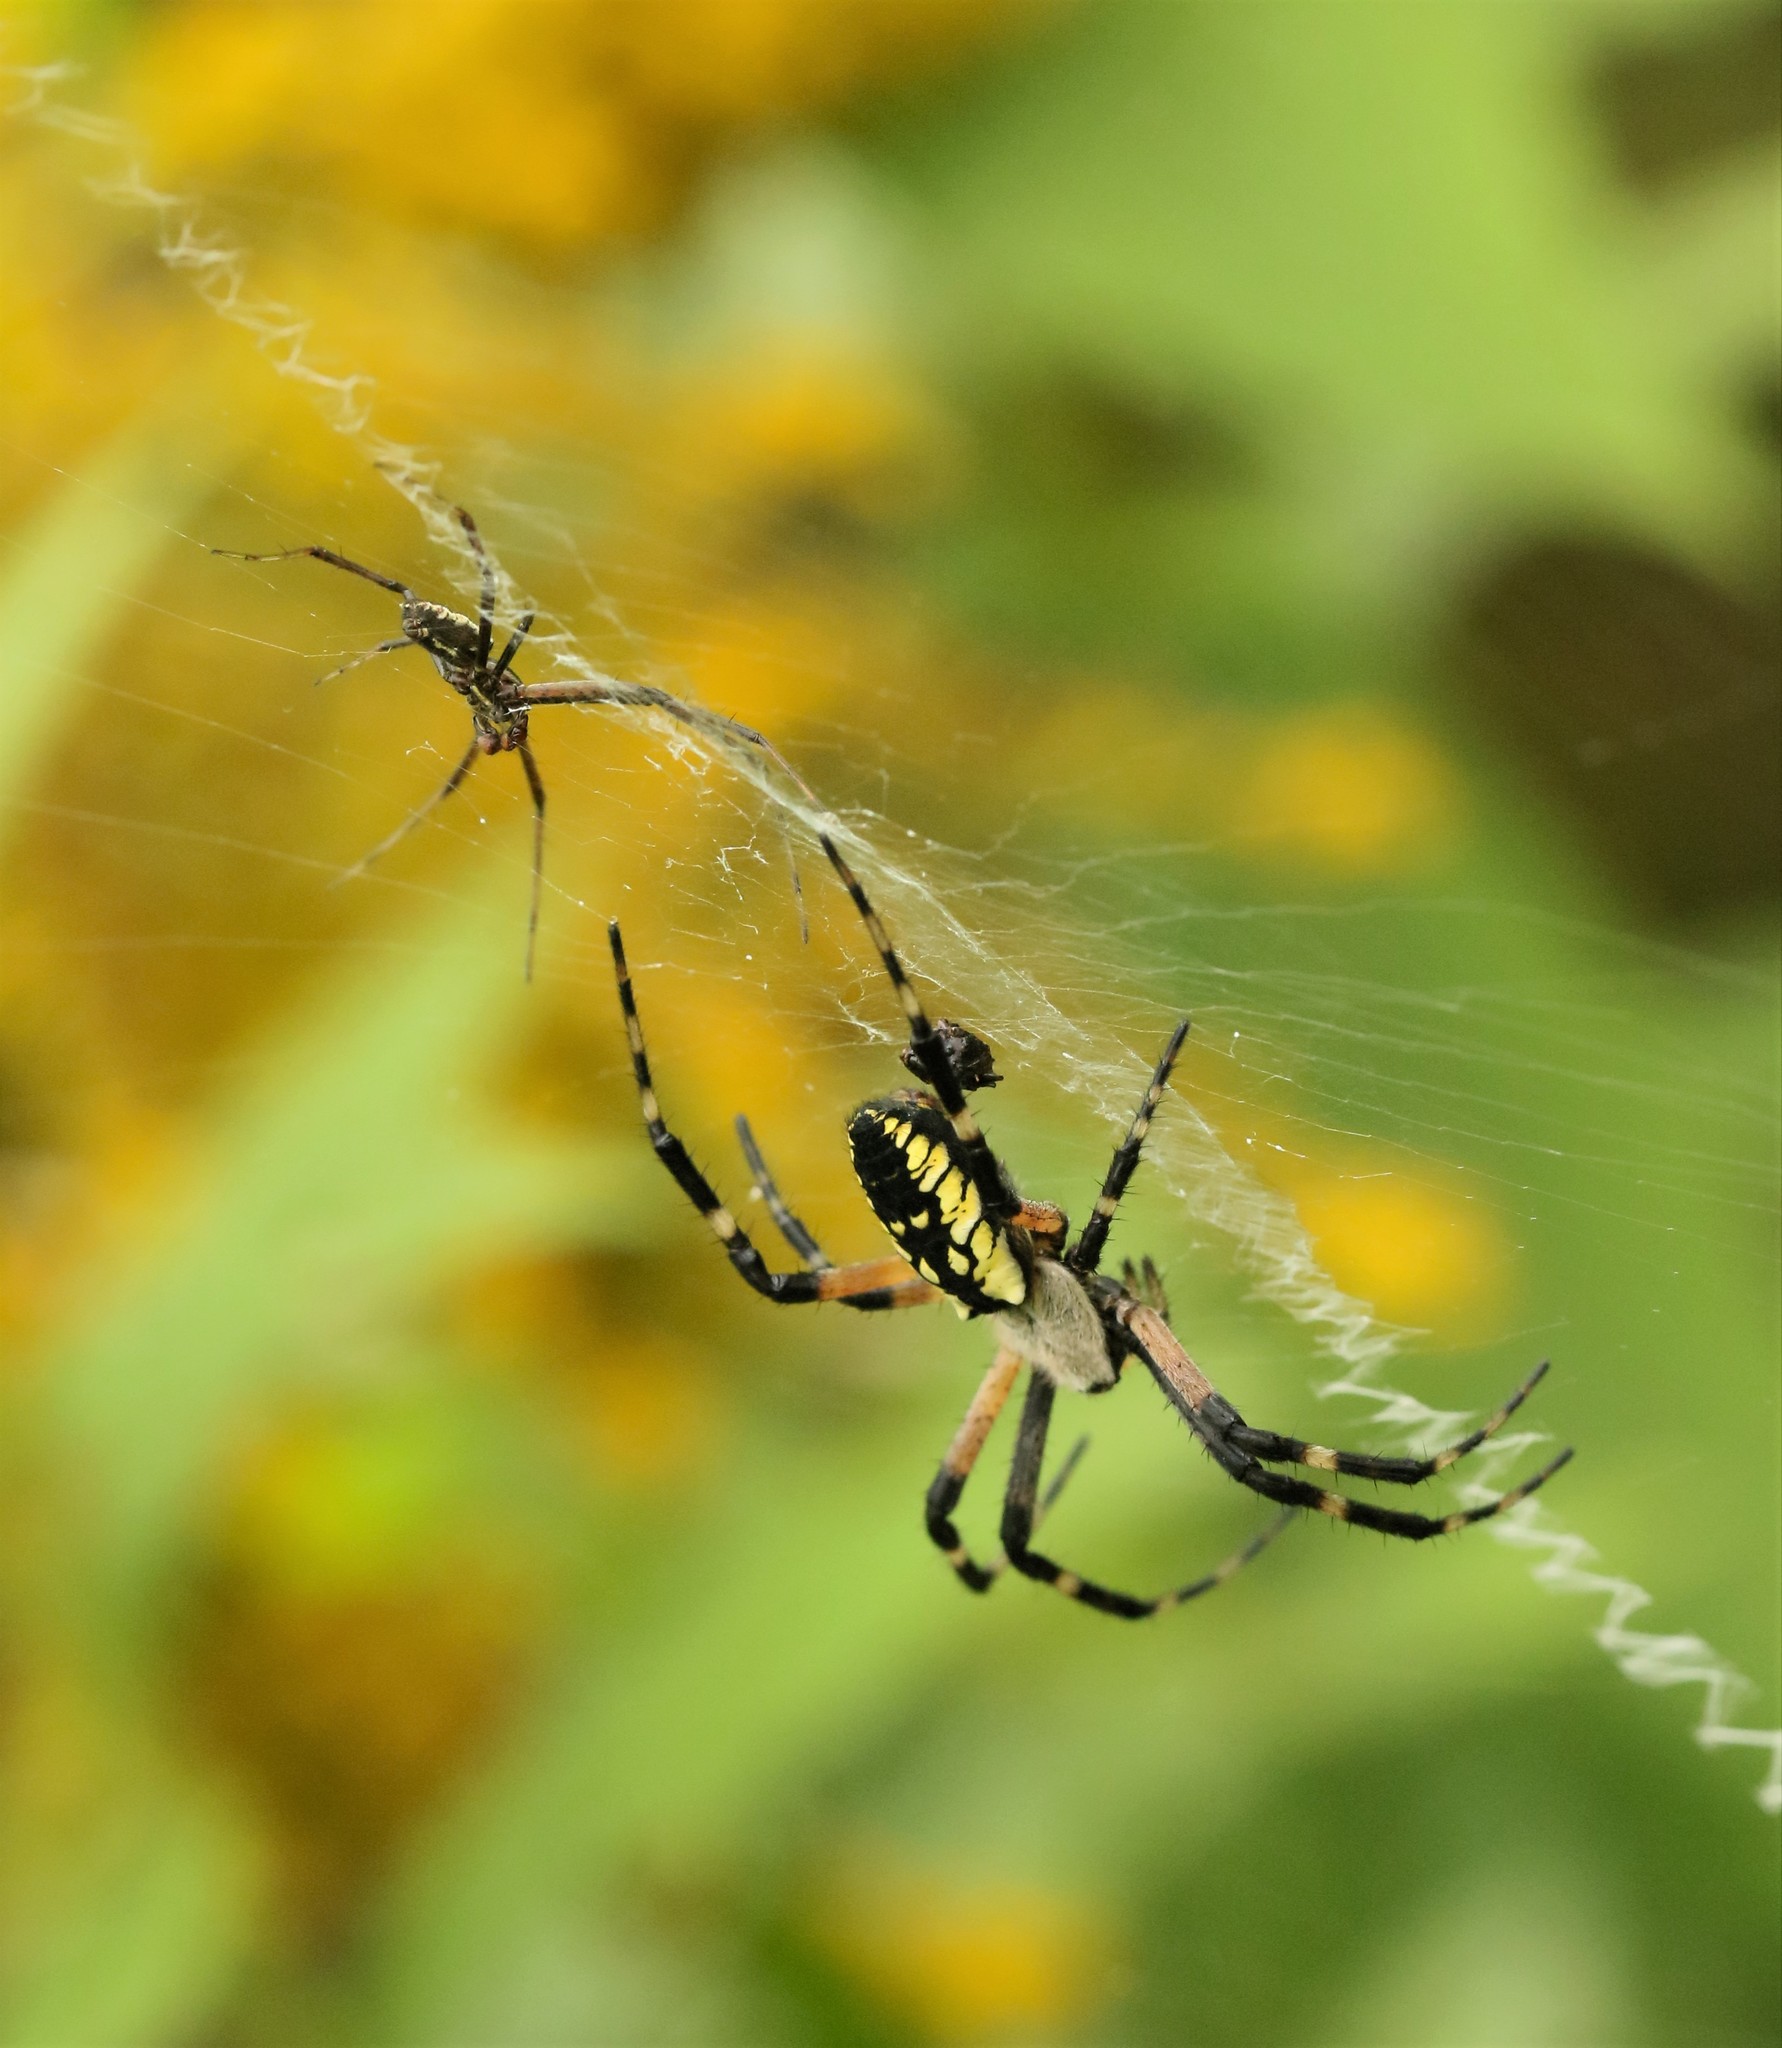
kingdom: Animalia
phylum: Arthropoda
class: Arachnida
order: Araneae
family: Araneidae
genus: Argiope
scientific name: Argiope aurantia
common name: Orb weavers
